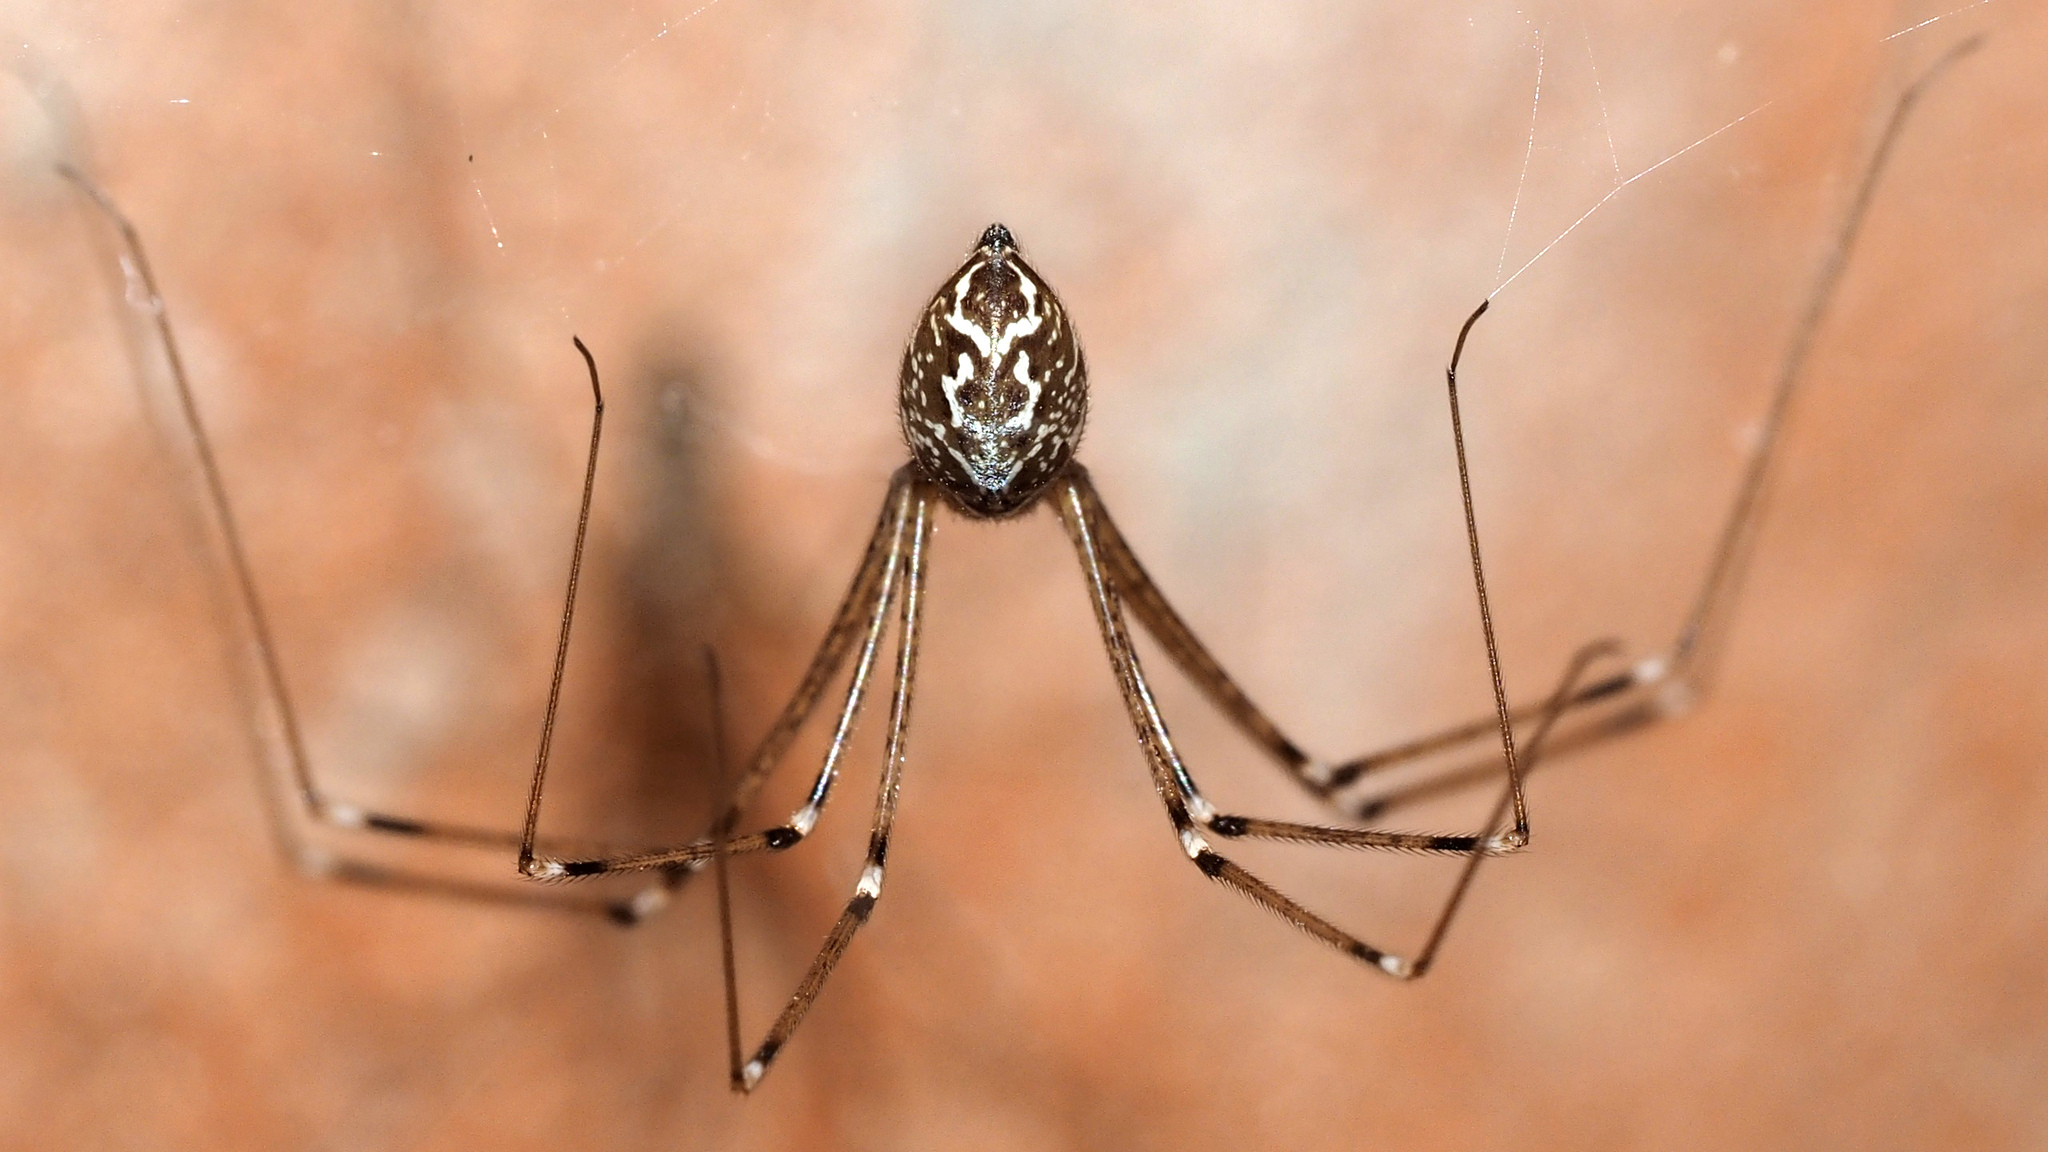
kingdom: Animalia
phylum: Arthropoda
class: Arachnida
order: Araneae
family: Pholcidae
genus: Holocnemus
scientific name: Holocnemus pluchei
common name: Marbled cellar spider
